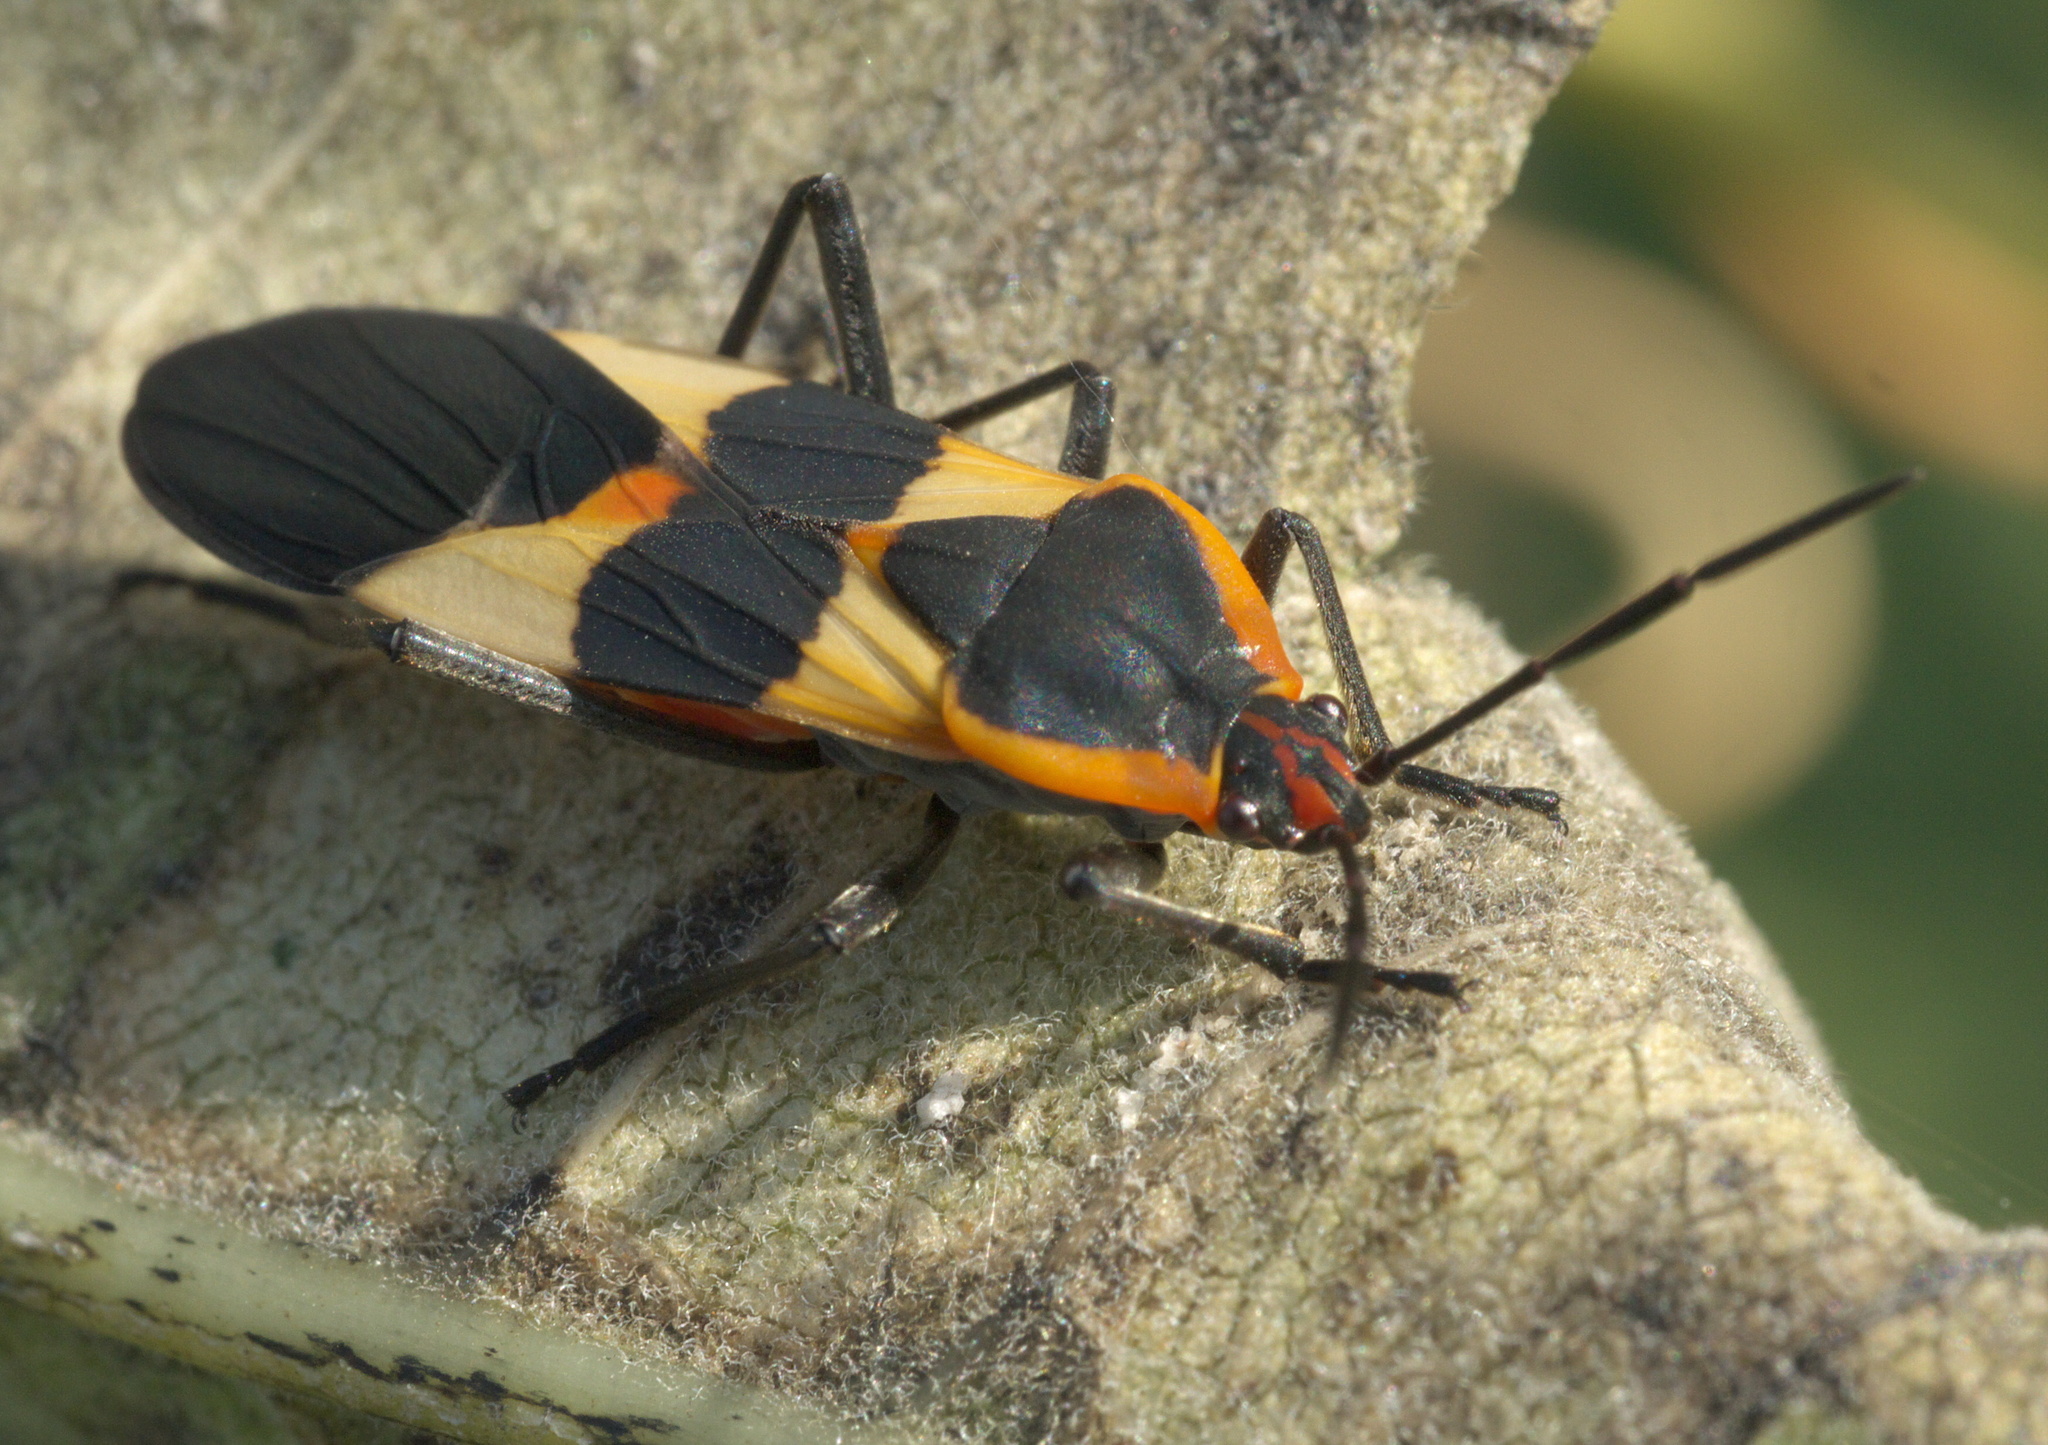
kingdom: Animalia
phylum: Arthropoda
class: Insecta
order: Hemiptera
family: Lygaeidae
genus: Oncopeltus
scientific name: Oncopeltus fasciatus
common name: Large milkweed bug
